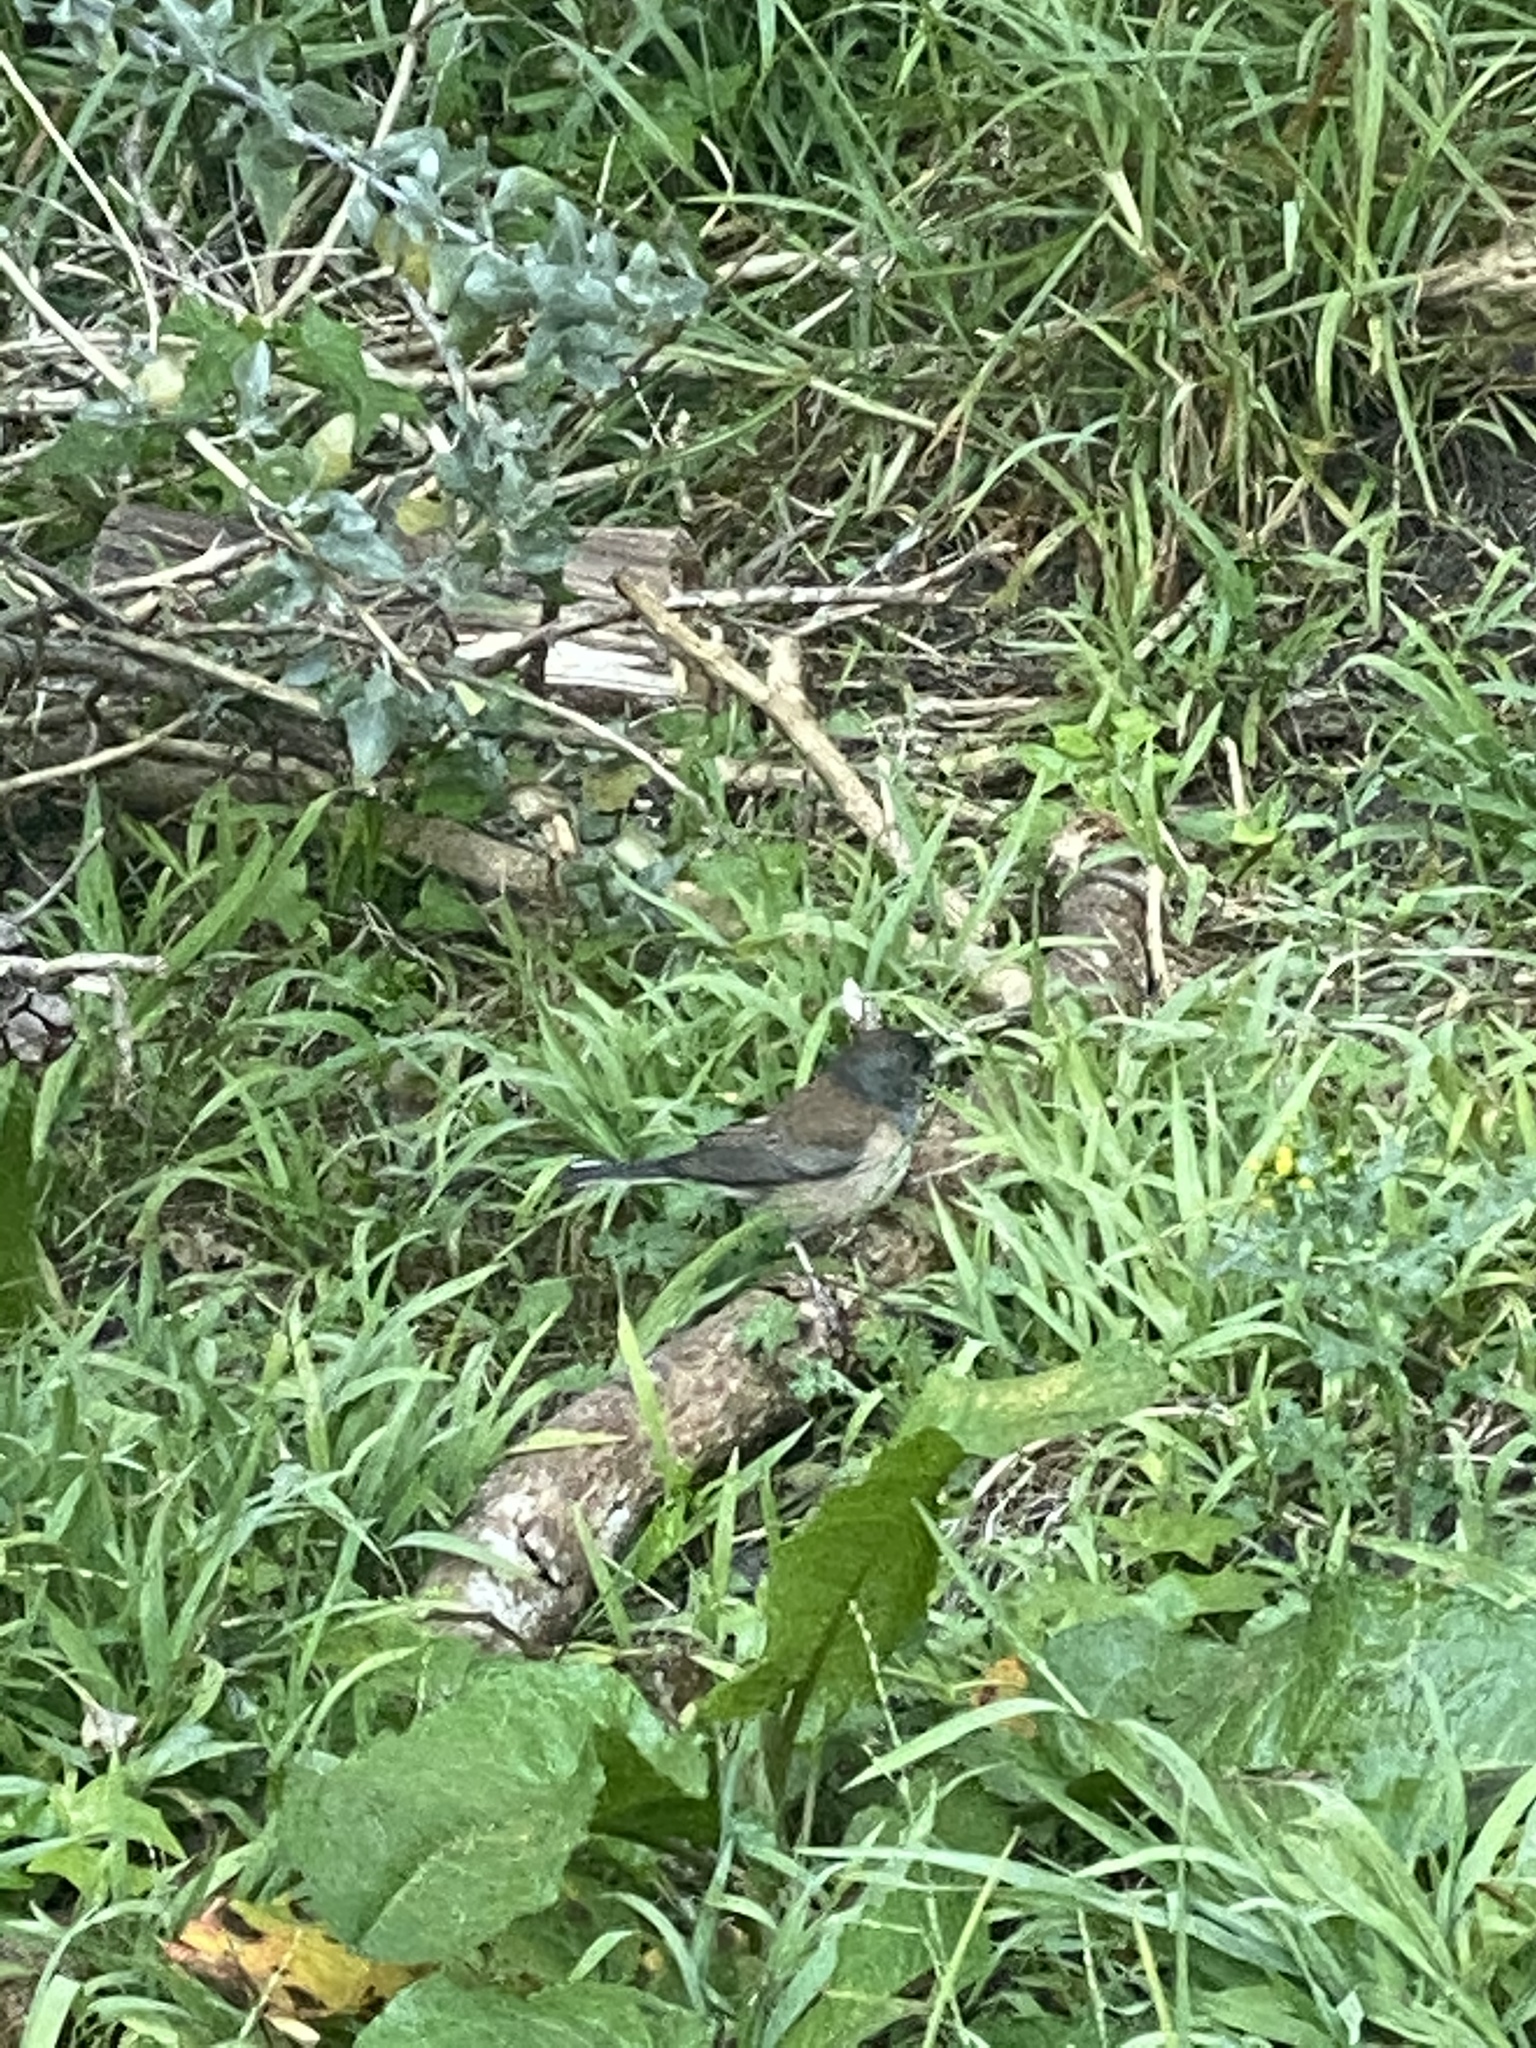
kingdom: Animalia
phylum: Chordata
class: Aves
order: Passeriformes
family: Passerellidae
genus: Junco
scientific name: Junco hyemalis
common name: Dark-eyed junco
